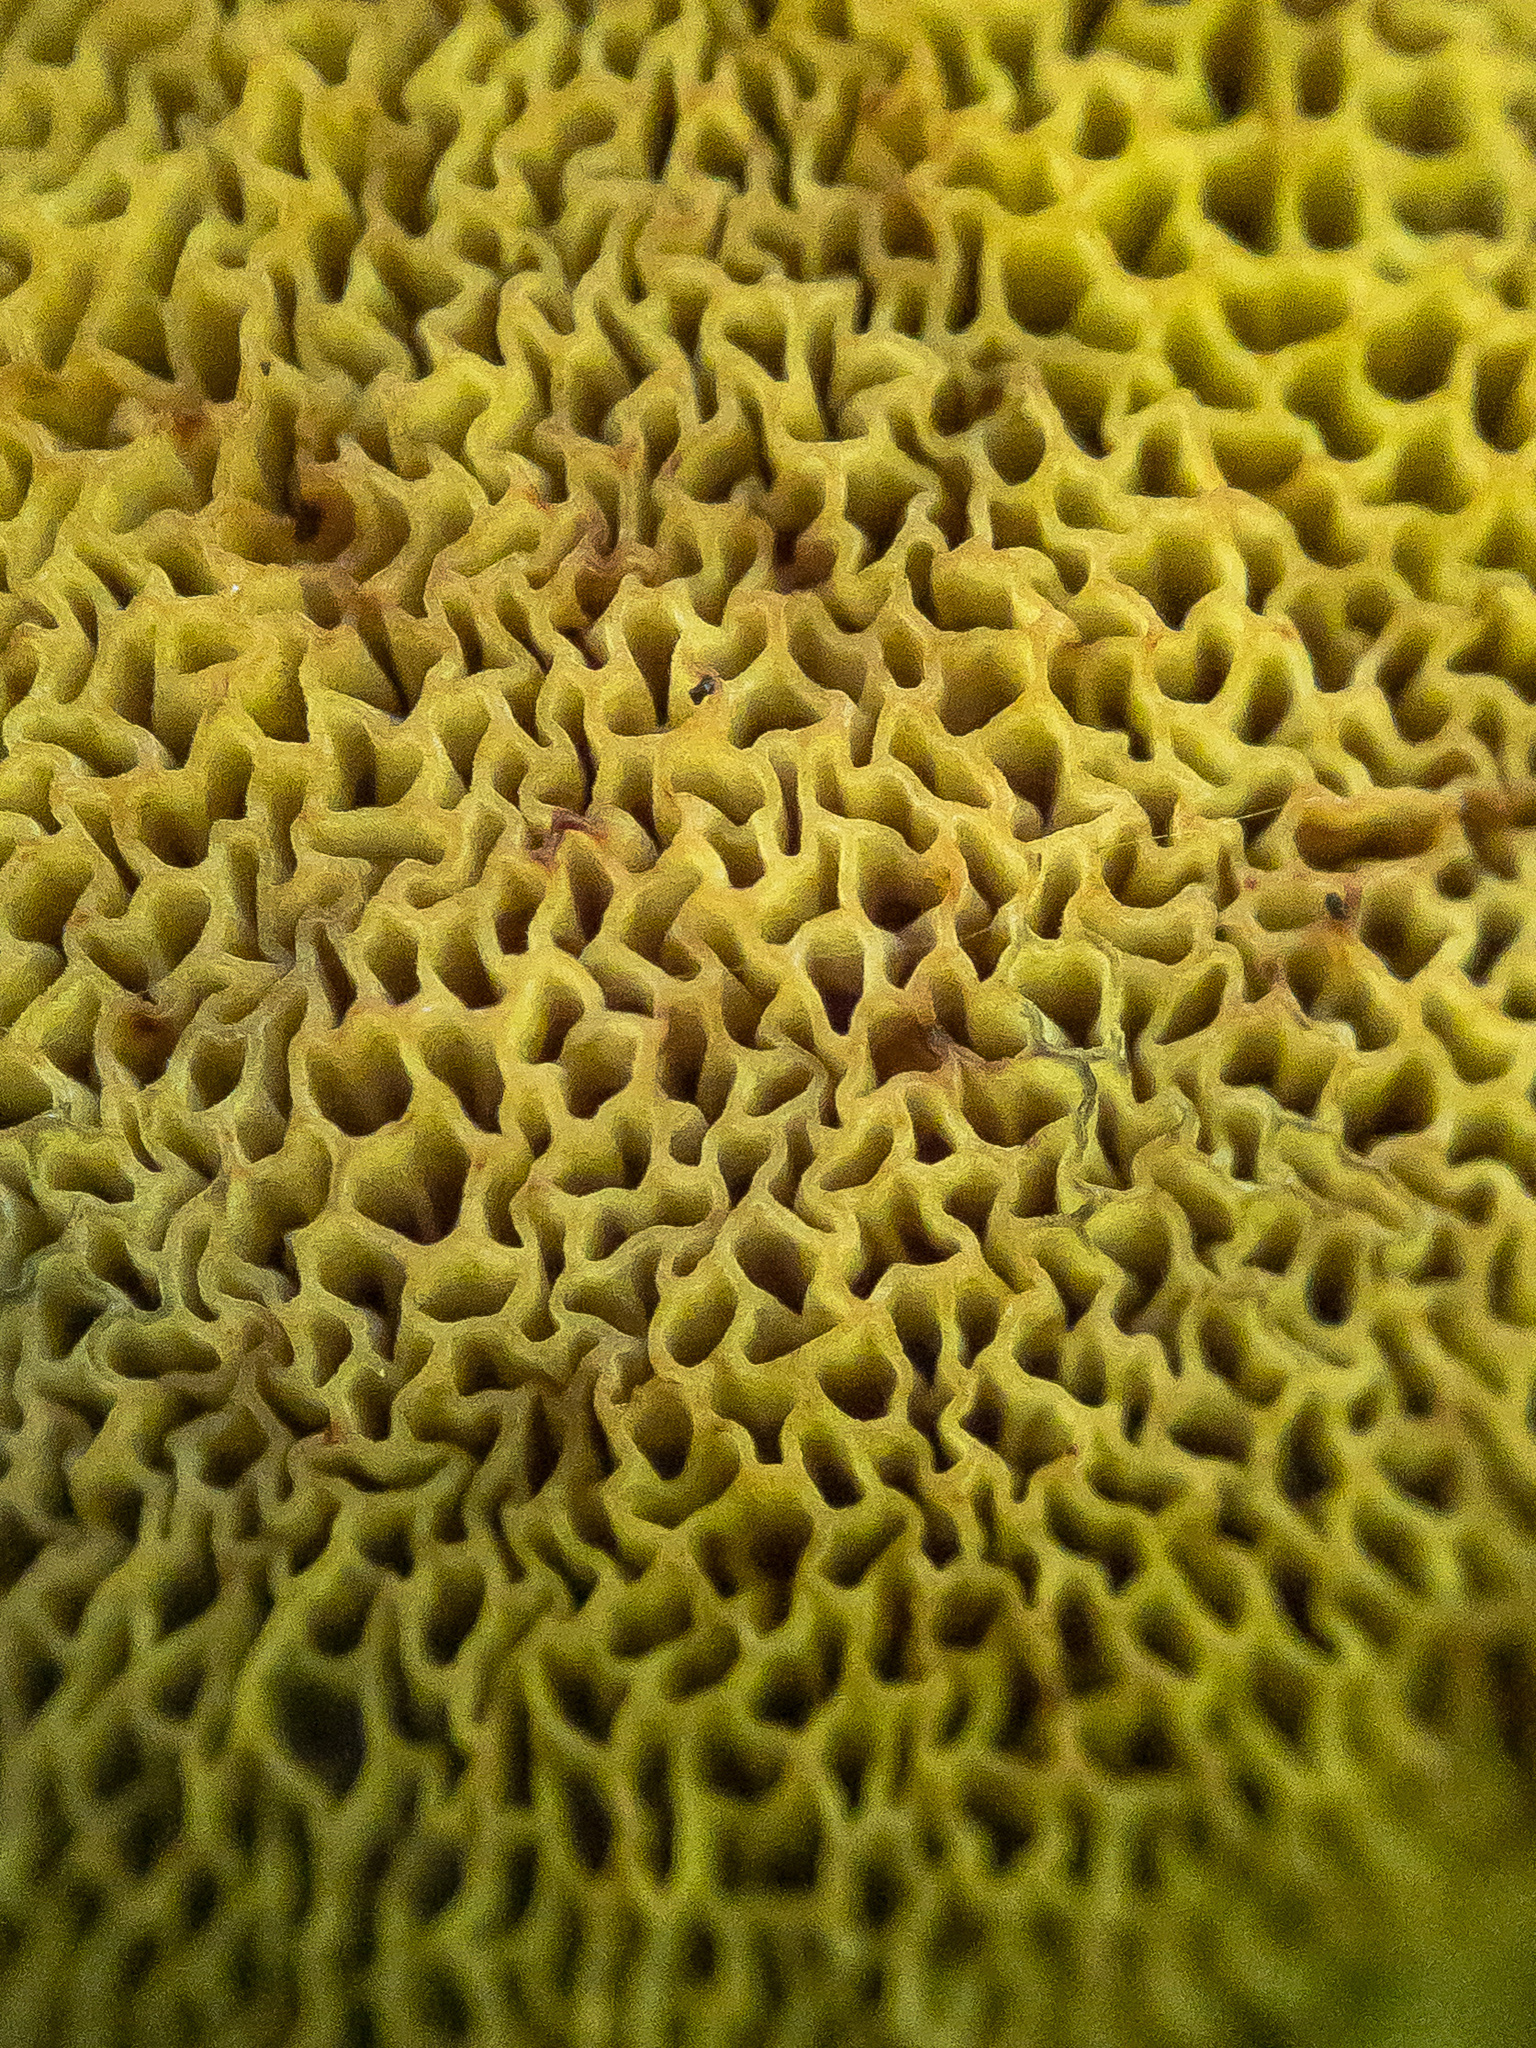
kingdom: Fungi
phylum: Basidiomycota
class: Agaricomycetes
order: Boletales
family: Boletaceae
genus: Xerocomellus
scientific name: Xerocomellus chrysenteron
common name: Red-cracking bolete
